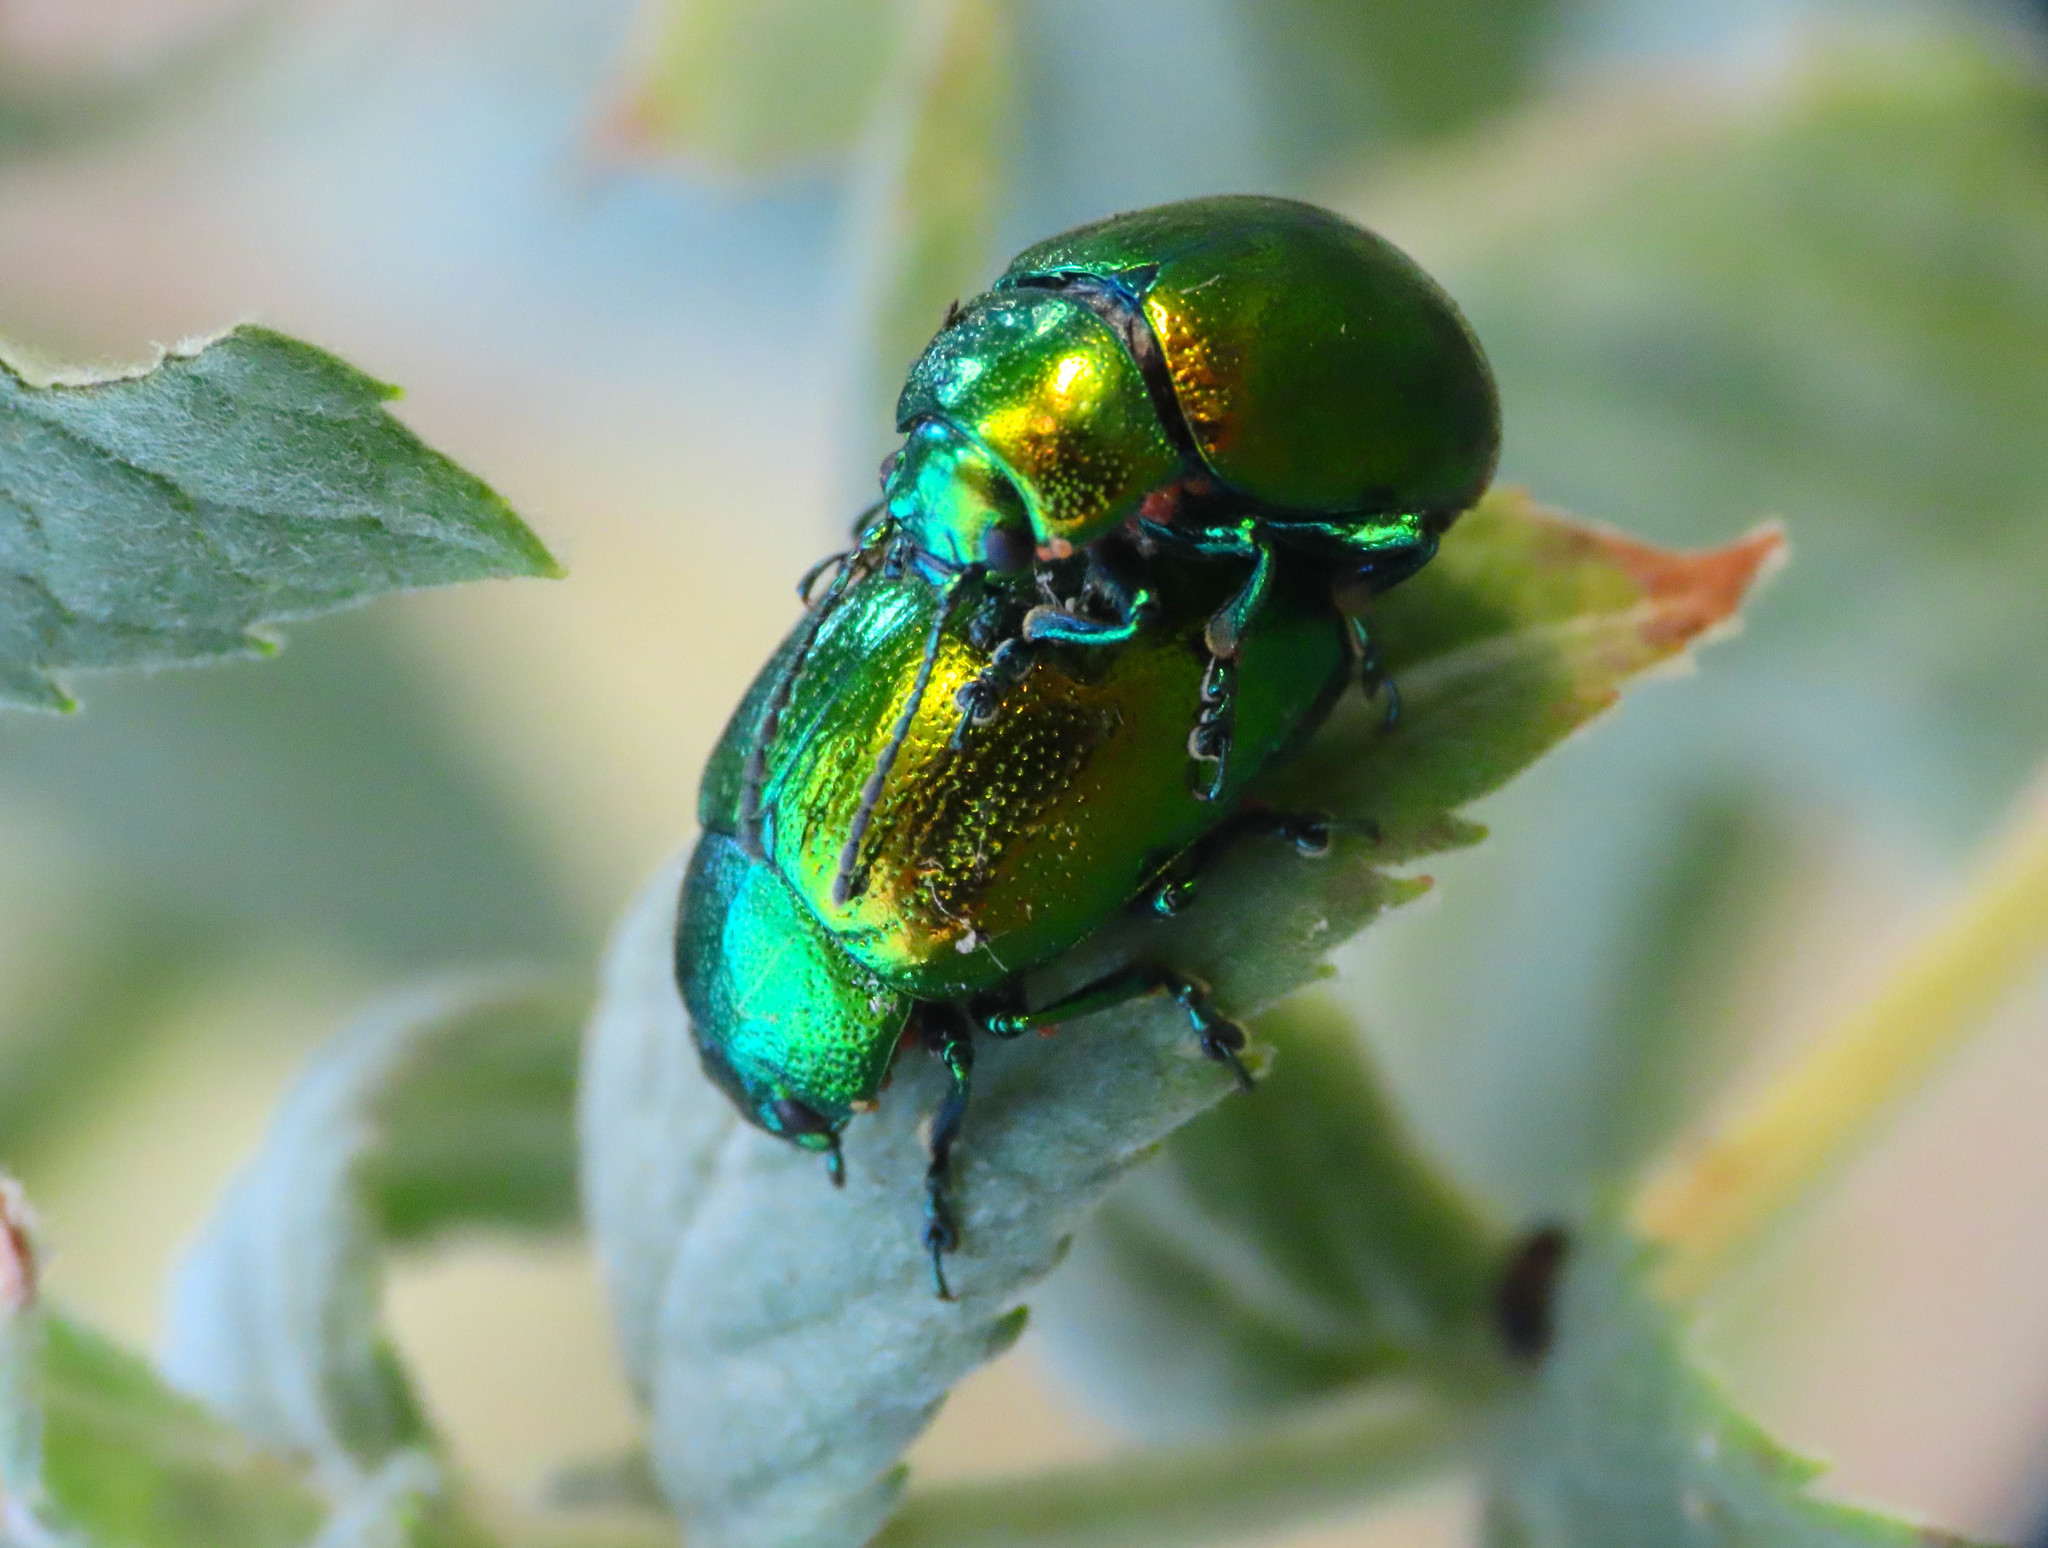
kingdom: Animalia
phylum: Arthropoda
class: Insecta
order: Coleoptera
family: Chrysomelidae
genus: Chrysolina
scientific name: Chrysolina herbacea
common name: Mint leaf beatle
